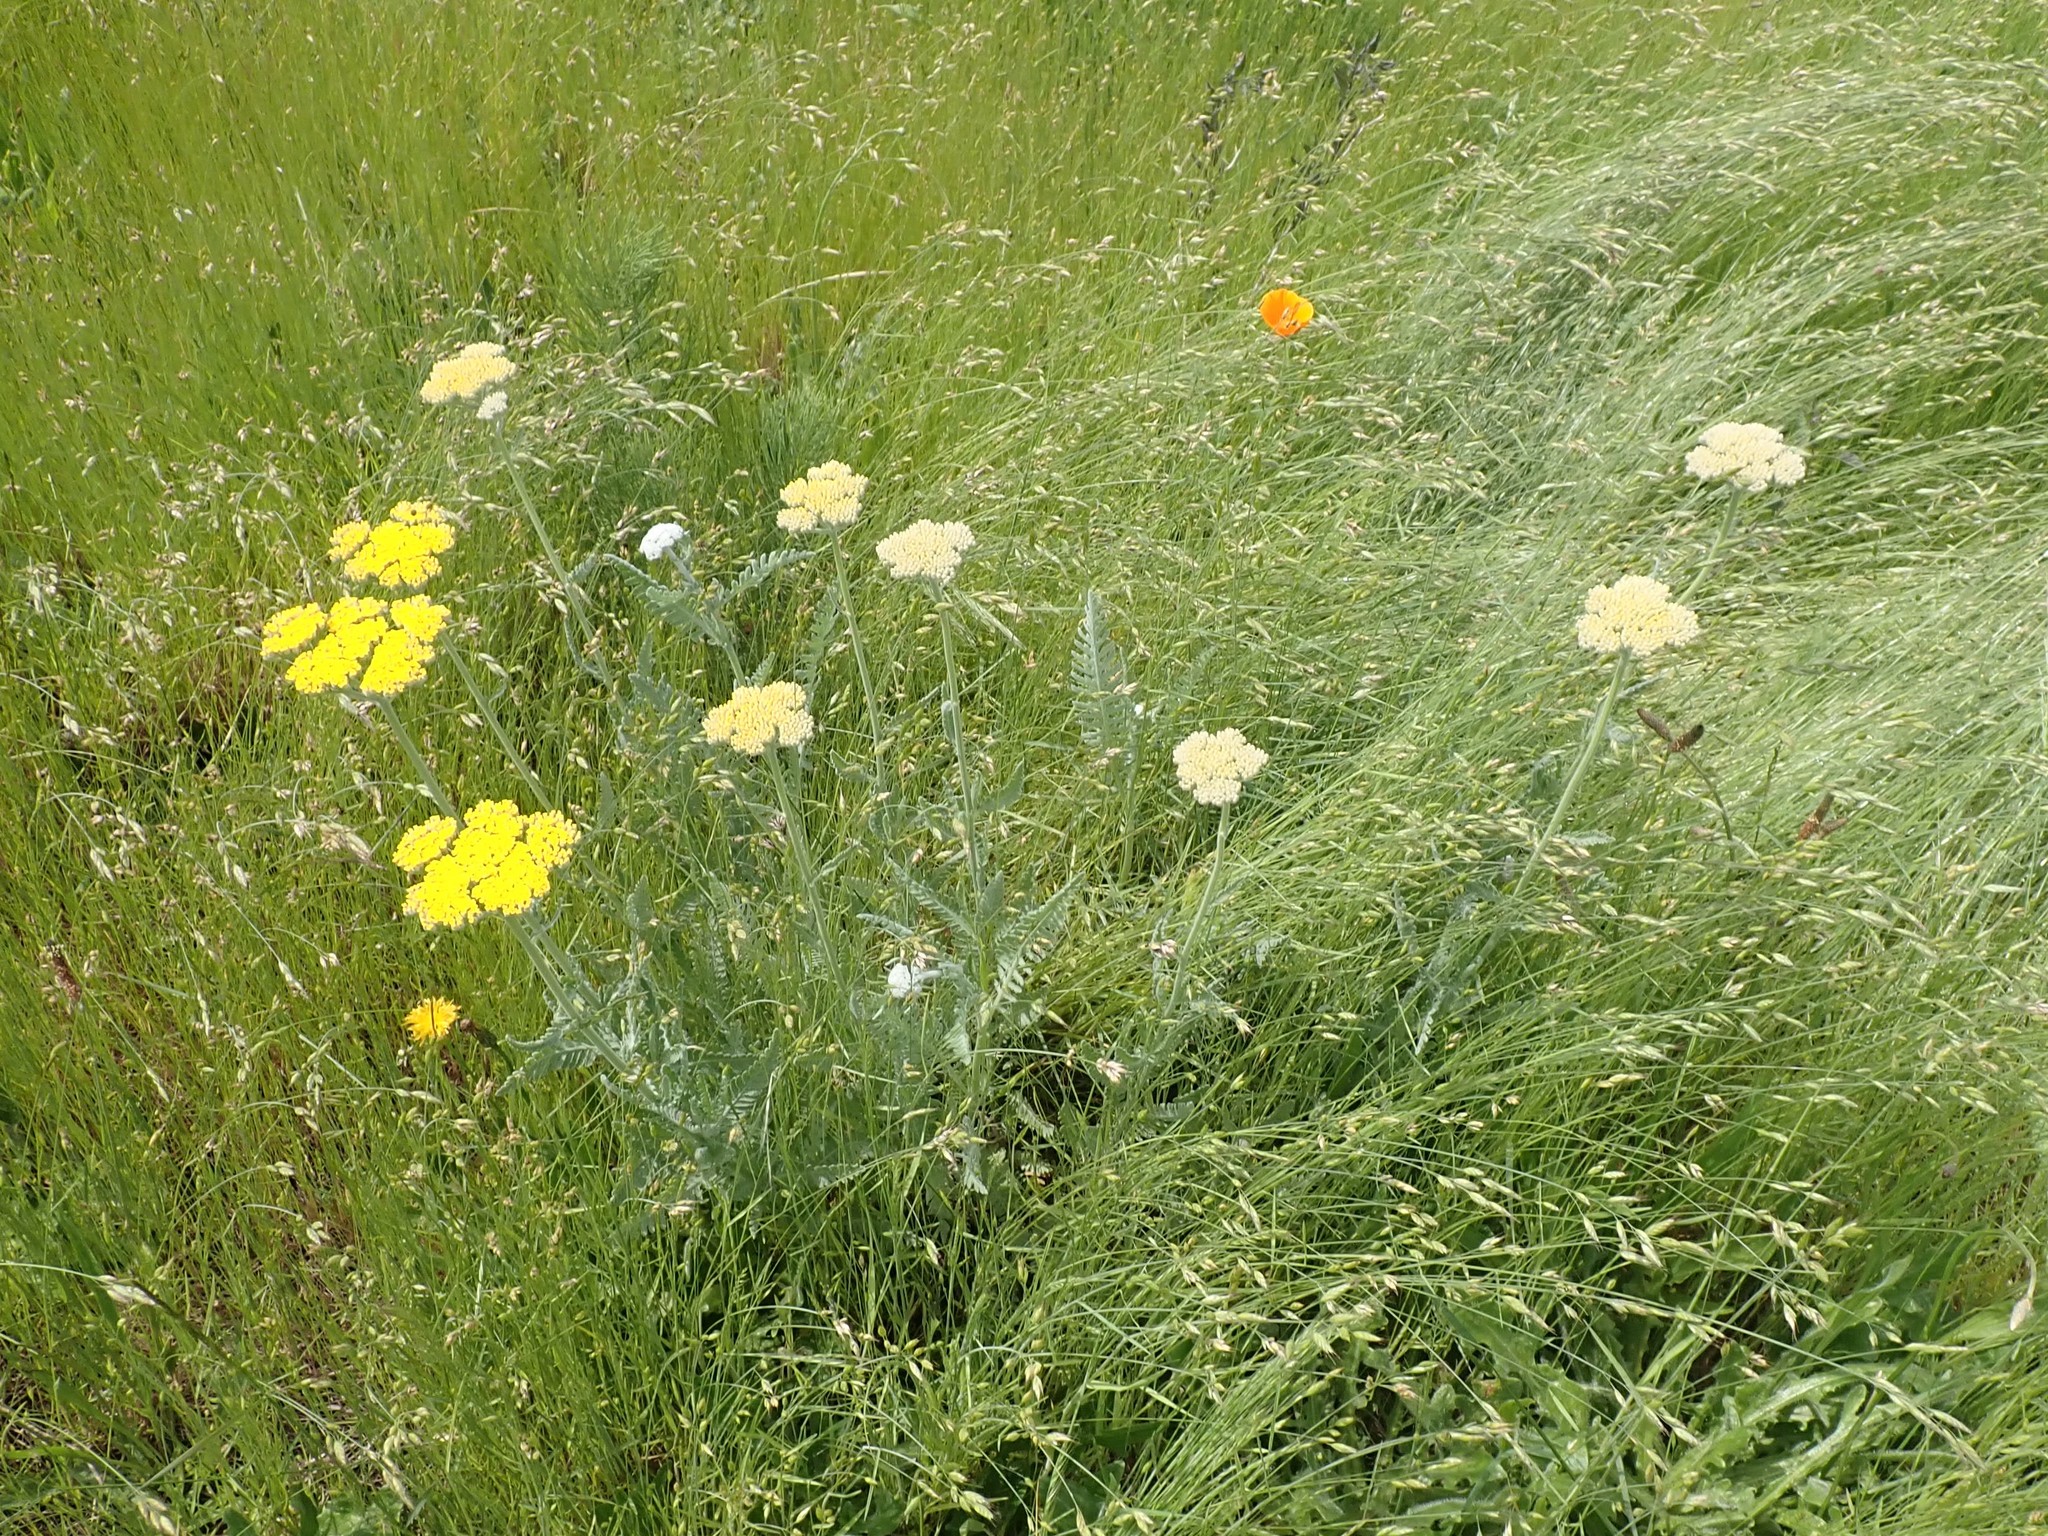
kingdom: Plantae
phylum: Tracheophyta
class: Magnoliopsida
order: Asterales
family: Asteraceae
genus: Achillea
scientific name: Achillea filipendulina
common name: Fernleaf yarrow
